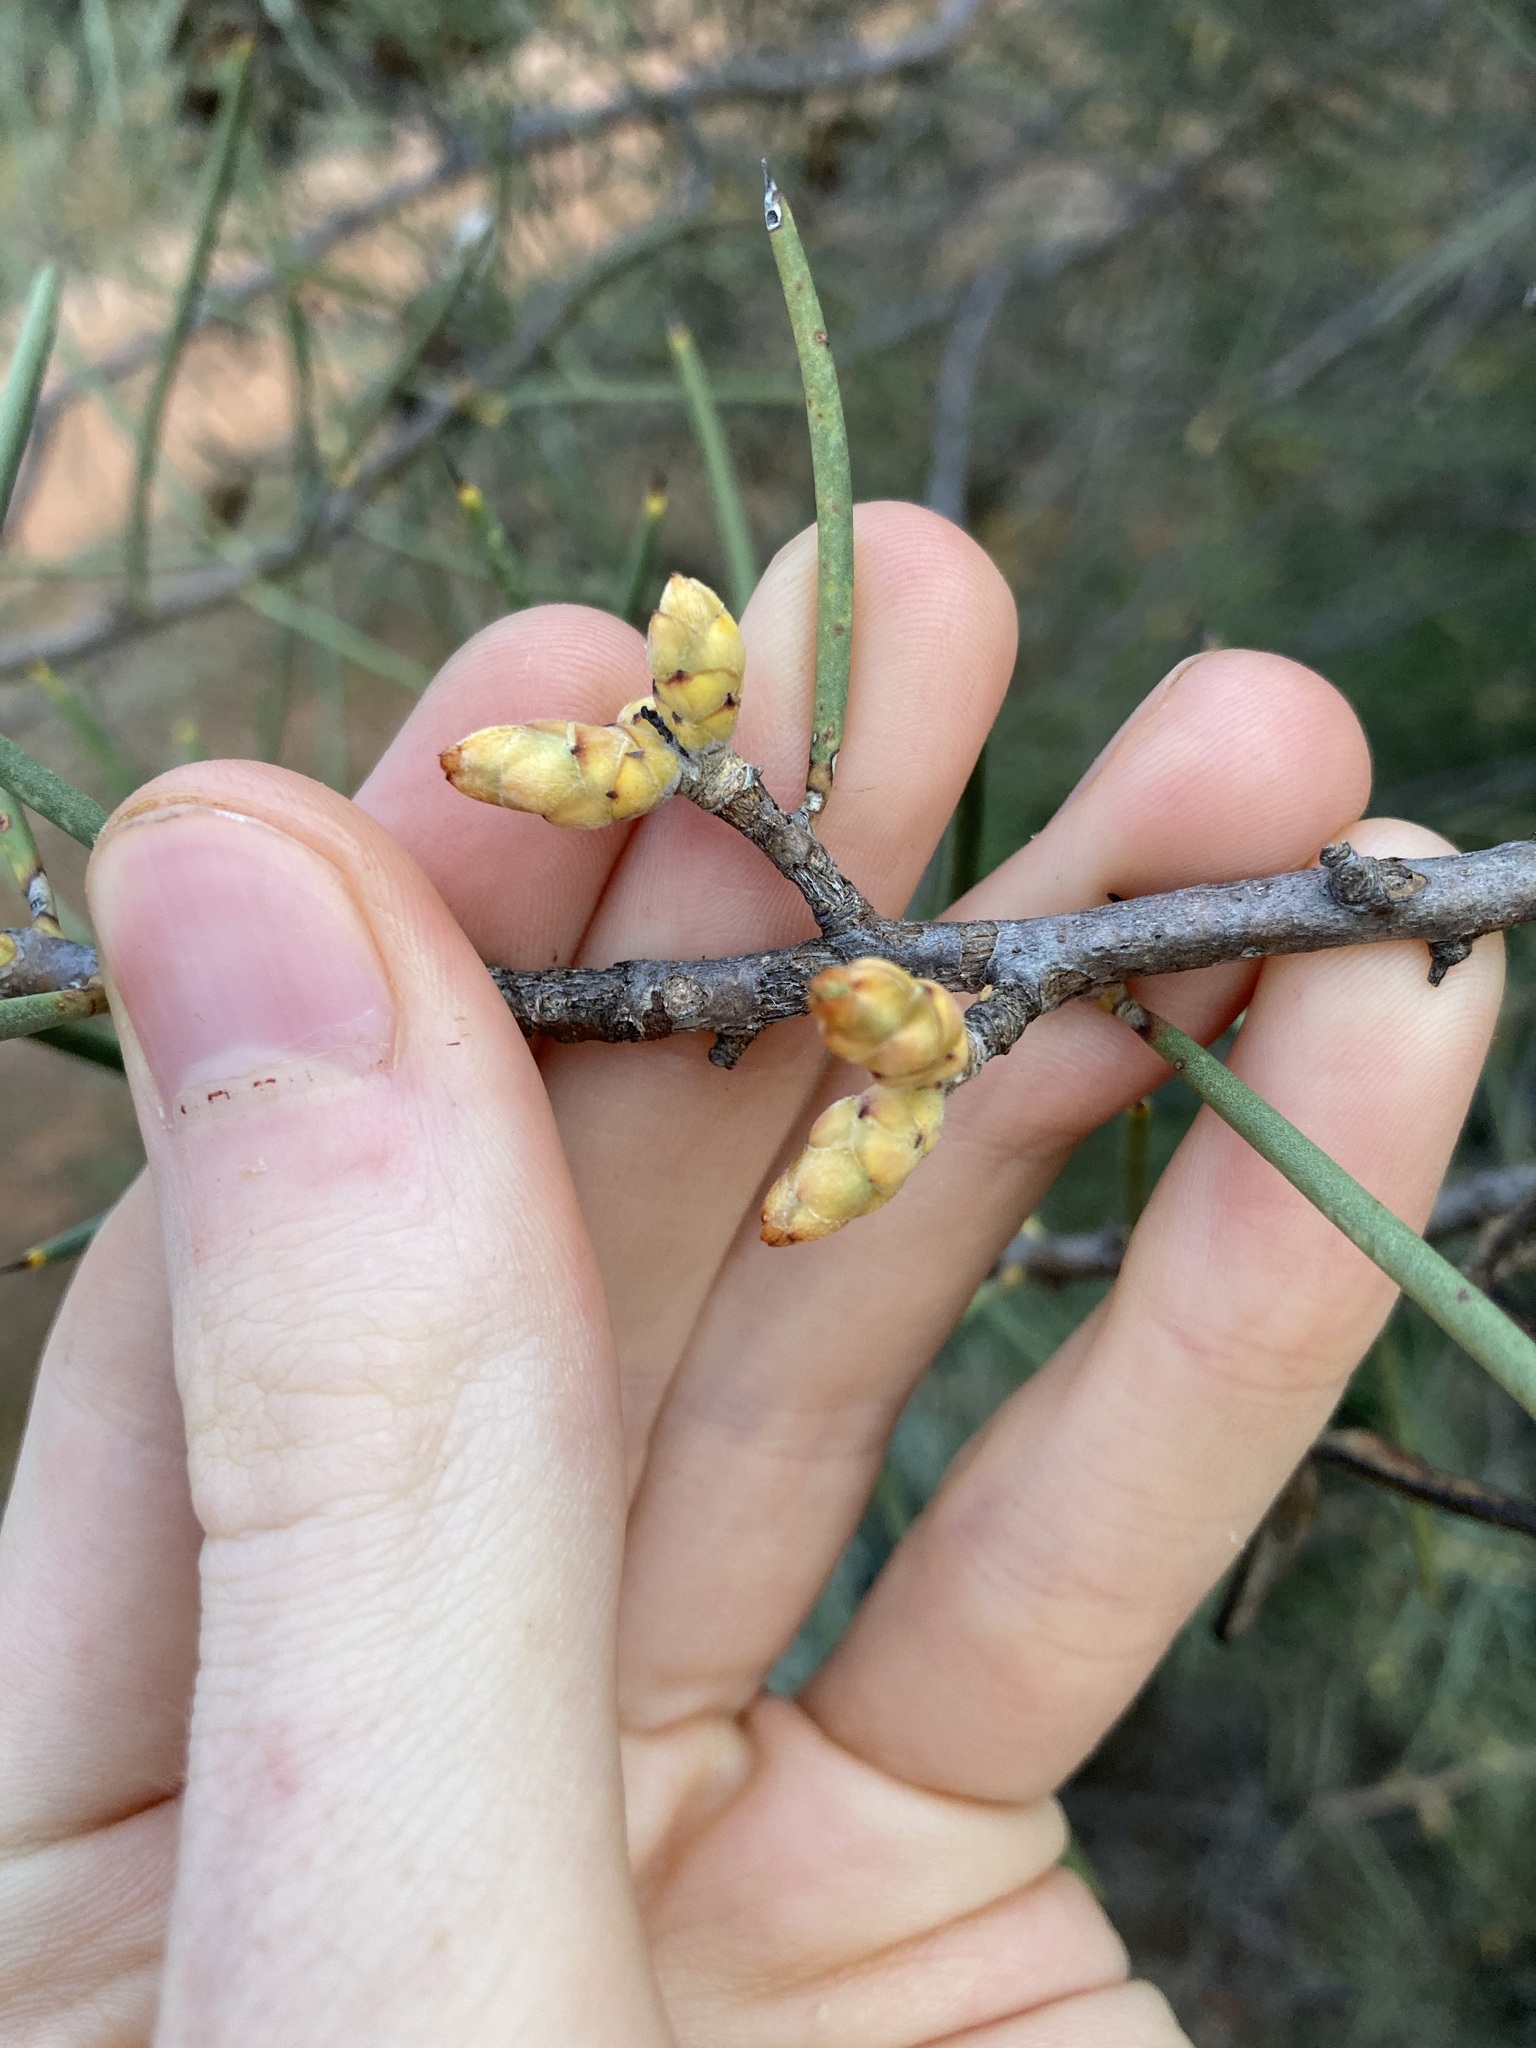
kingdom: Plantae
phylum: Tracheophyta
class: Magnoliopsida
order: Proteales
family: Proteaceae
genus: Hakea
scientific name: Hakea recurva
